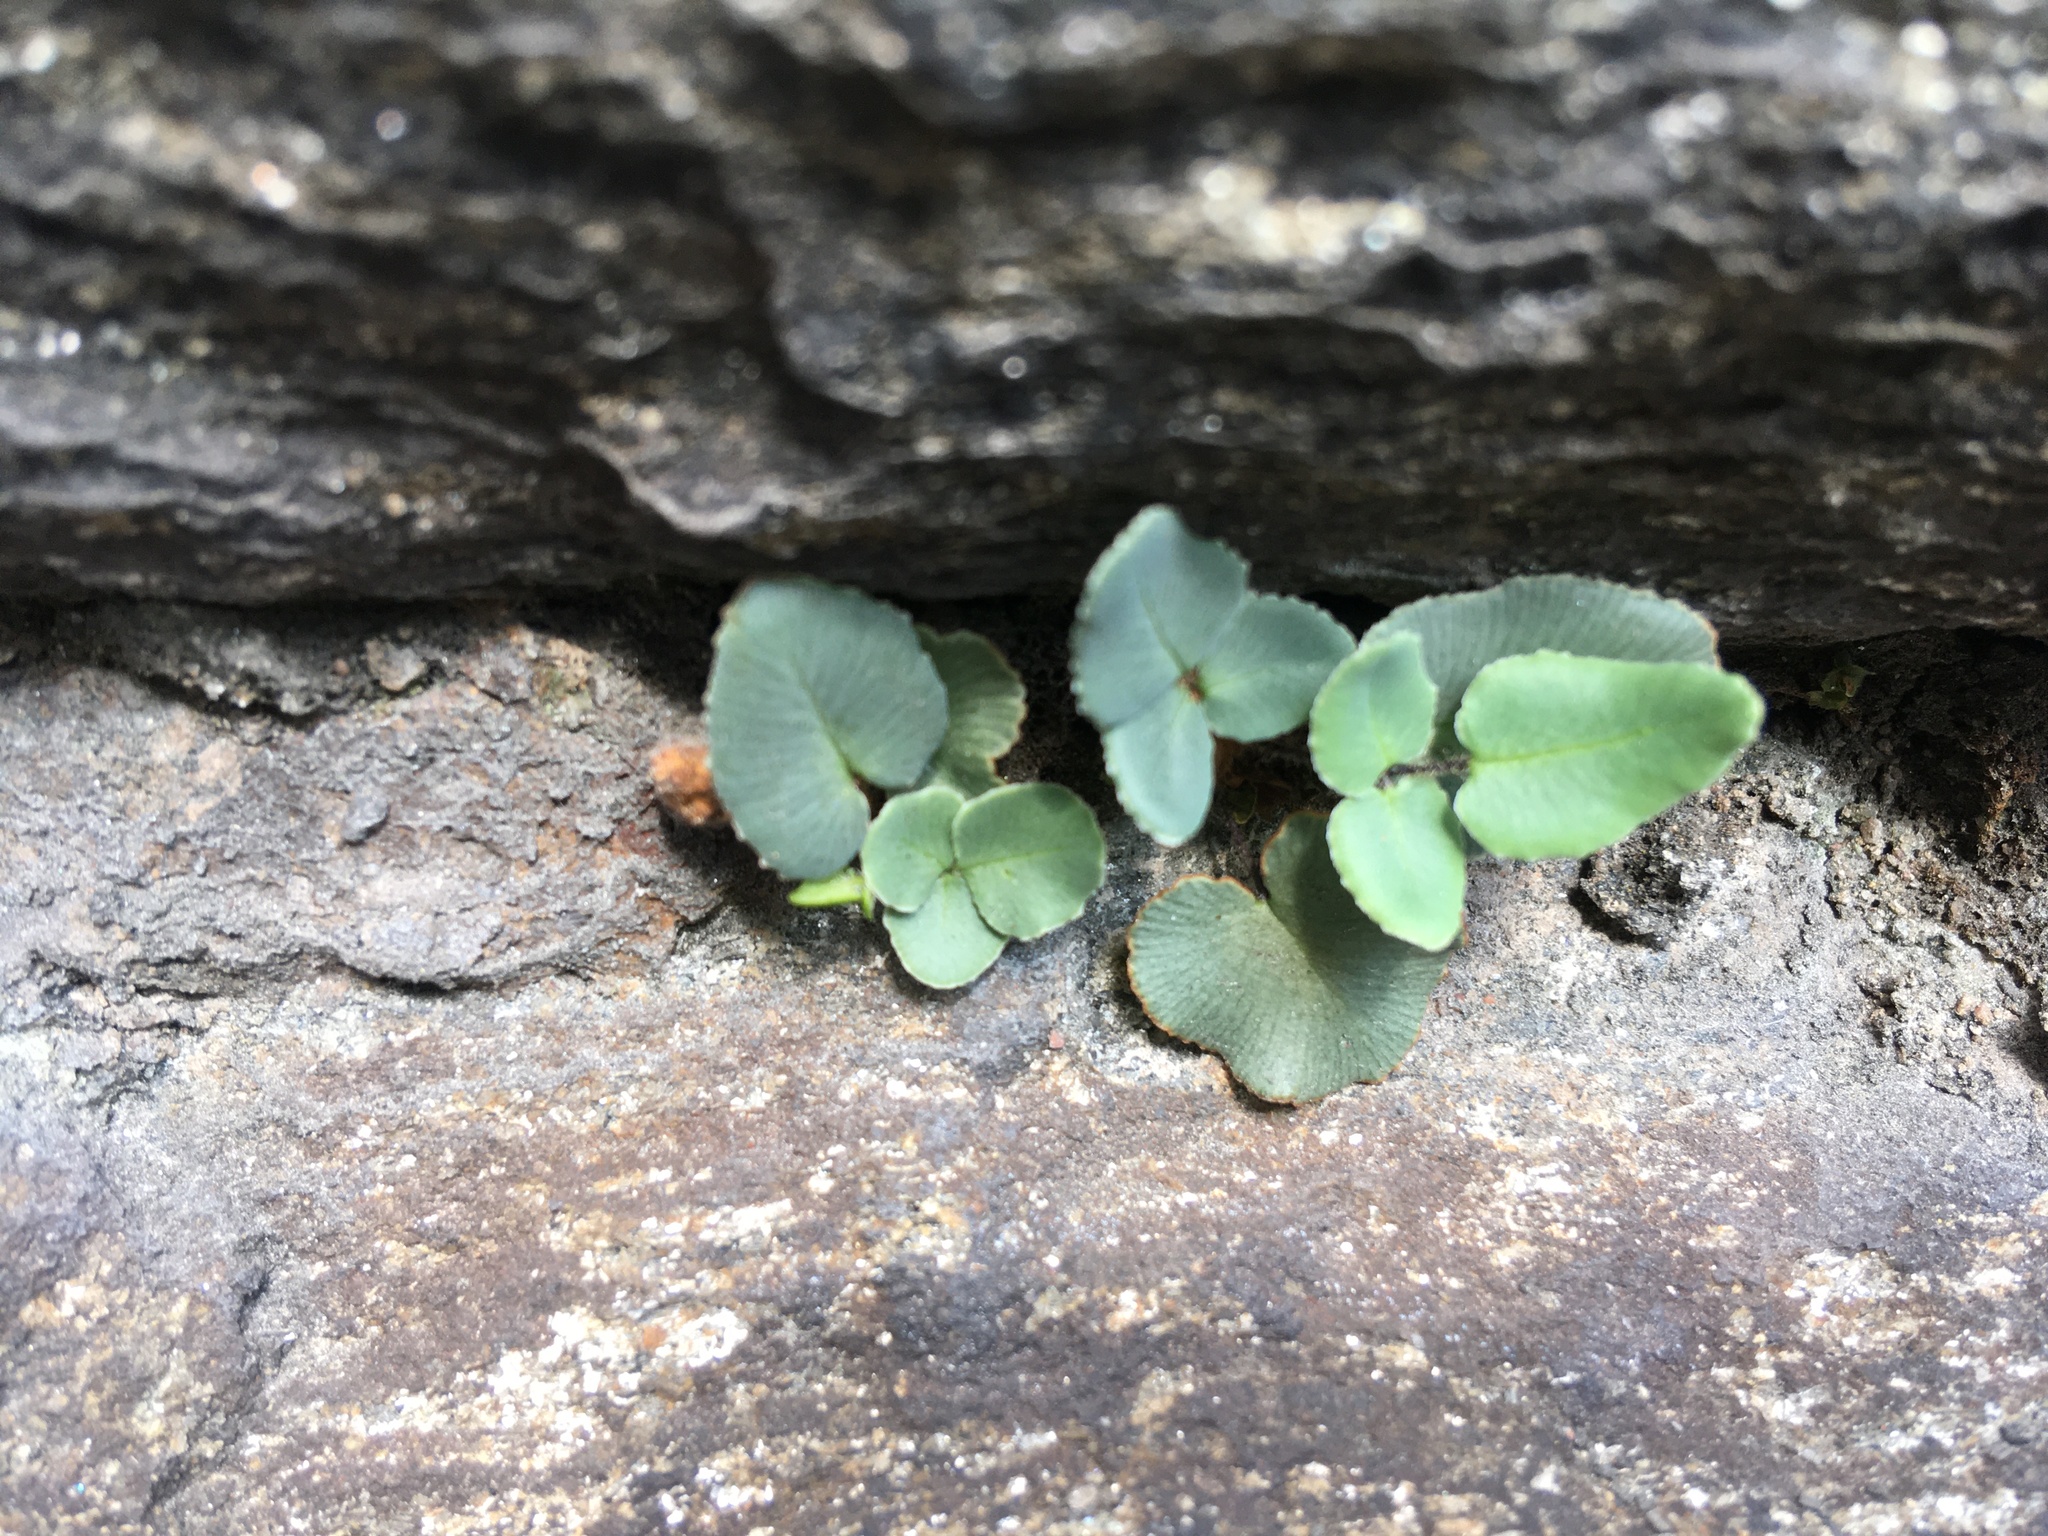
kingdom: Plantae
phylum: Tracheophyta
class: Polypodiopsida
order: Polypodiales
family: Pteridaceae
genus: Pellaea
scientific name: Pellaea atropurpurea
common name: Hairy cliffbrake
